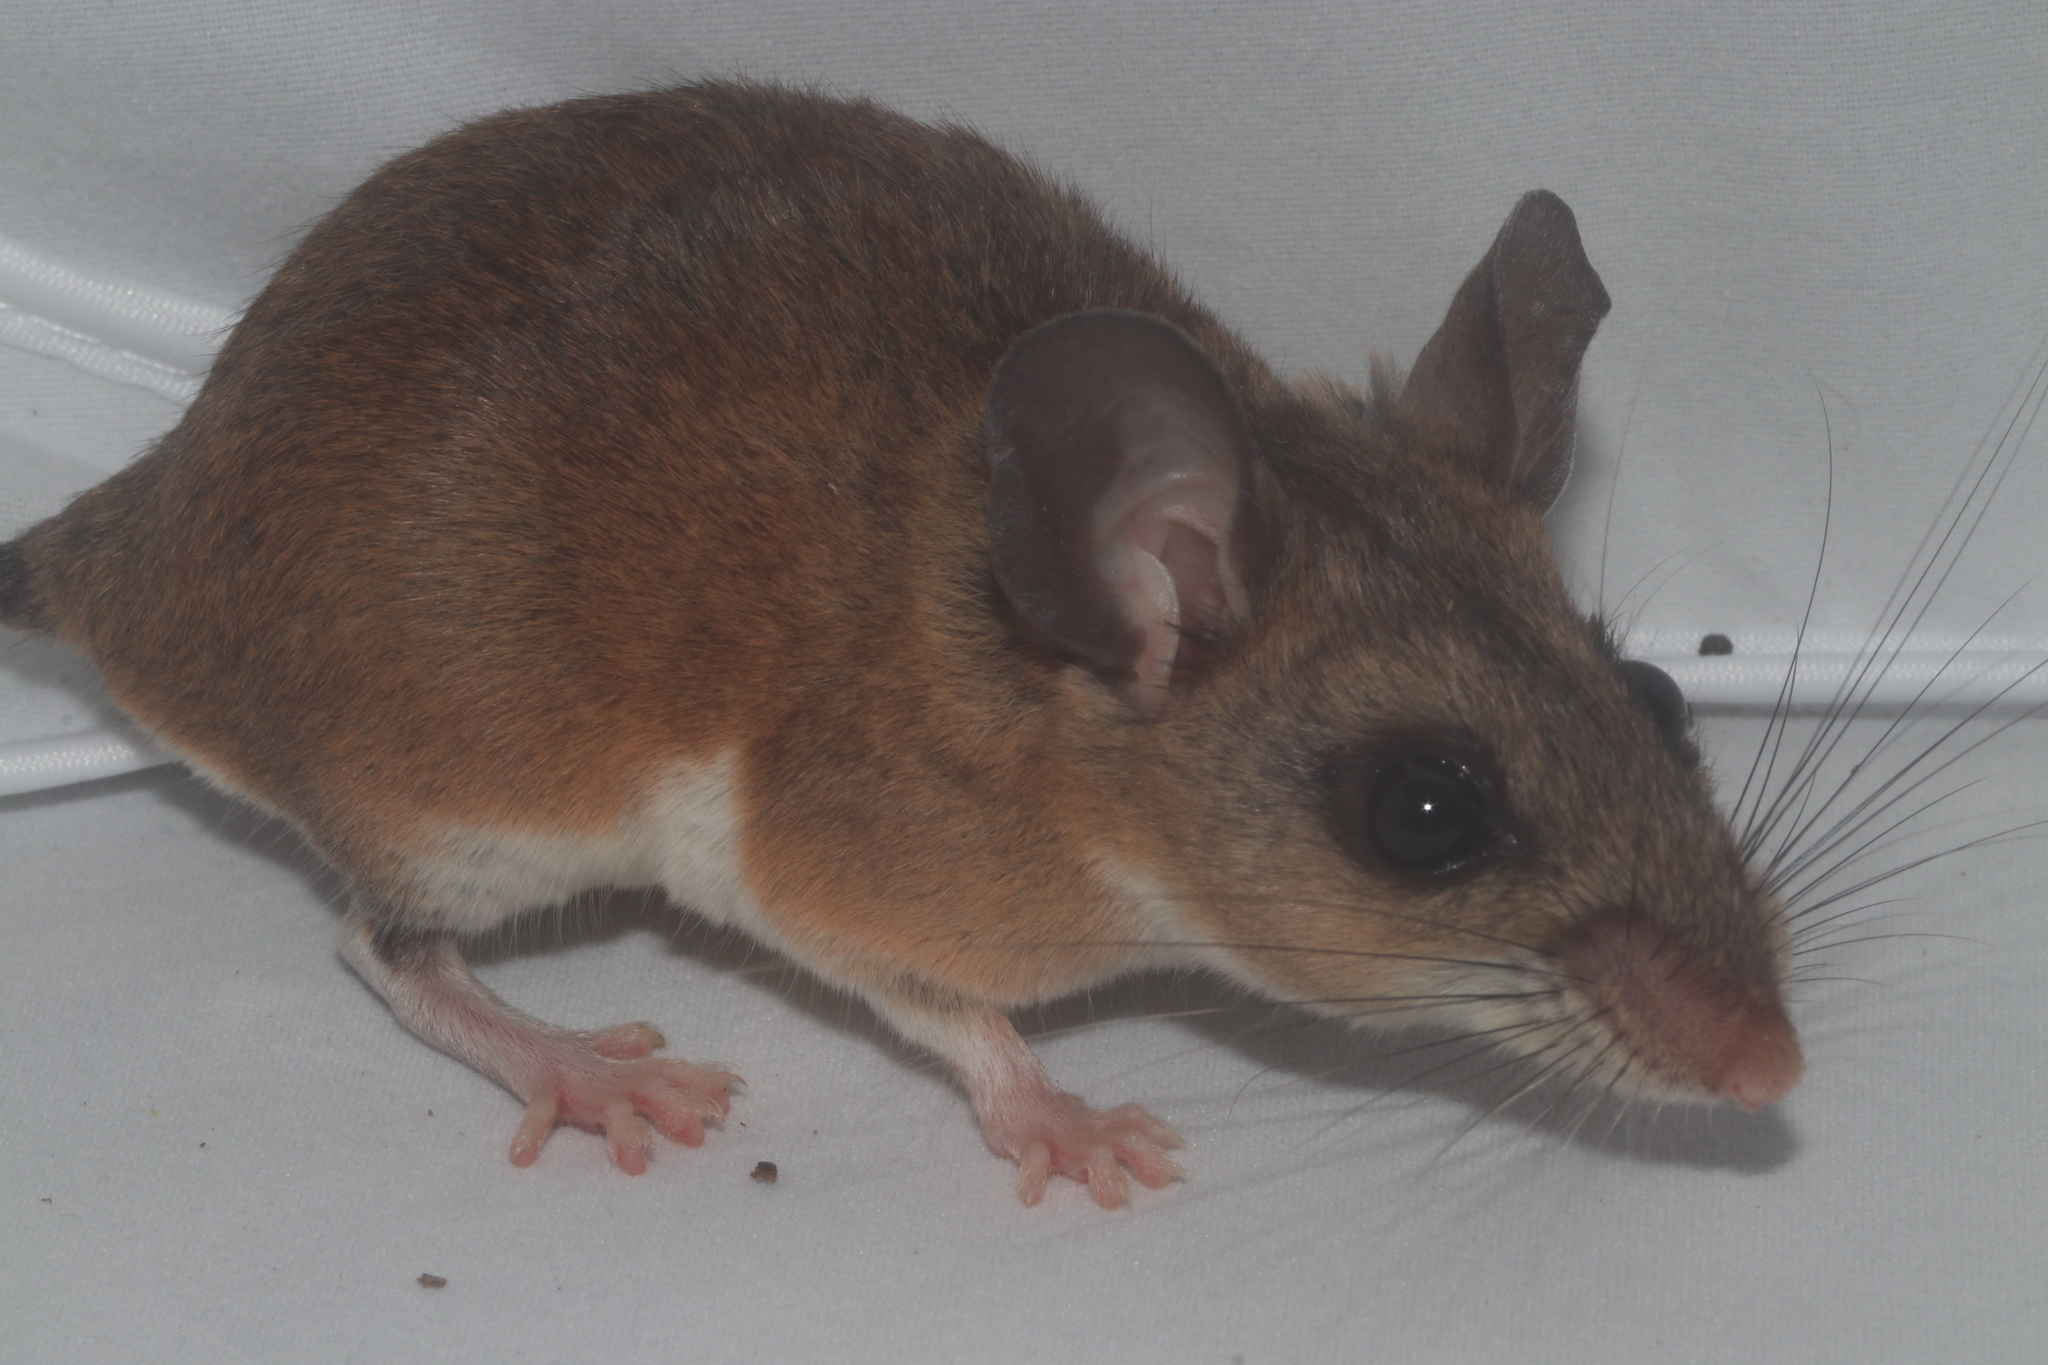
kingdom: Animalia
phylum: Chordata
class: Mammalia
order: Rodentia
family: Cricetidae
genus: Peromyscus
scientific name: Peromyscus yucatanicus
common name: Yucatán deermouse
